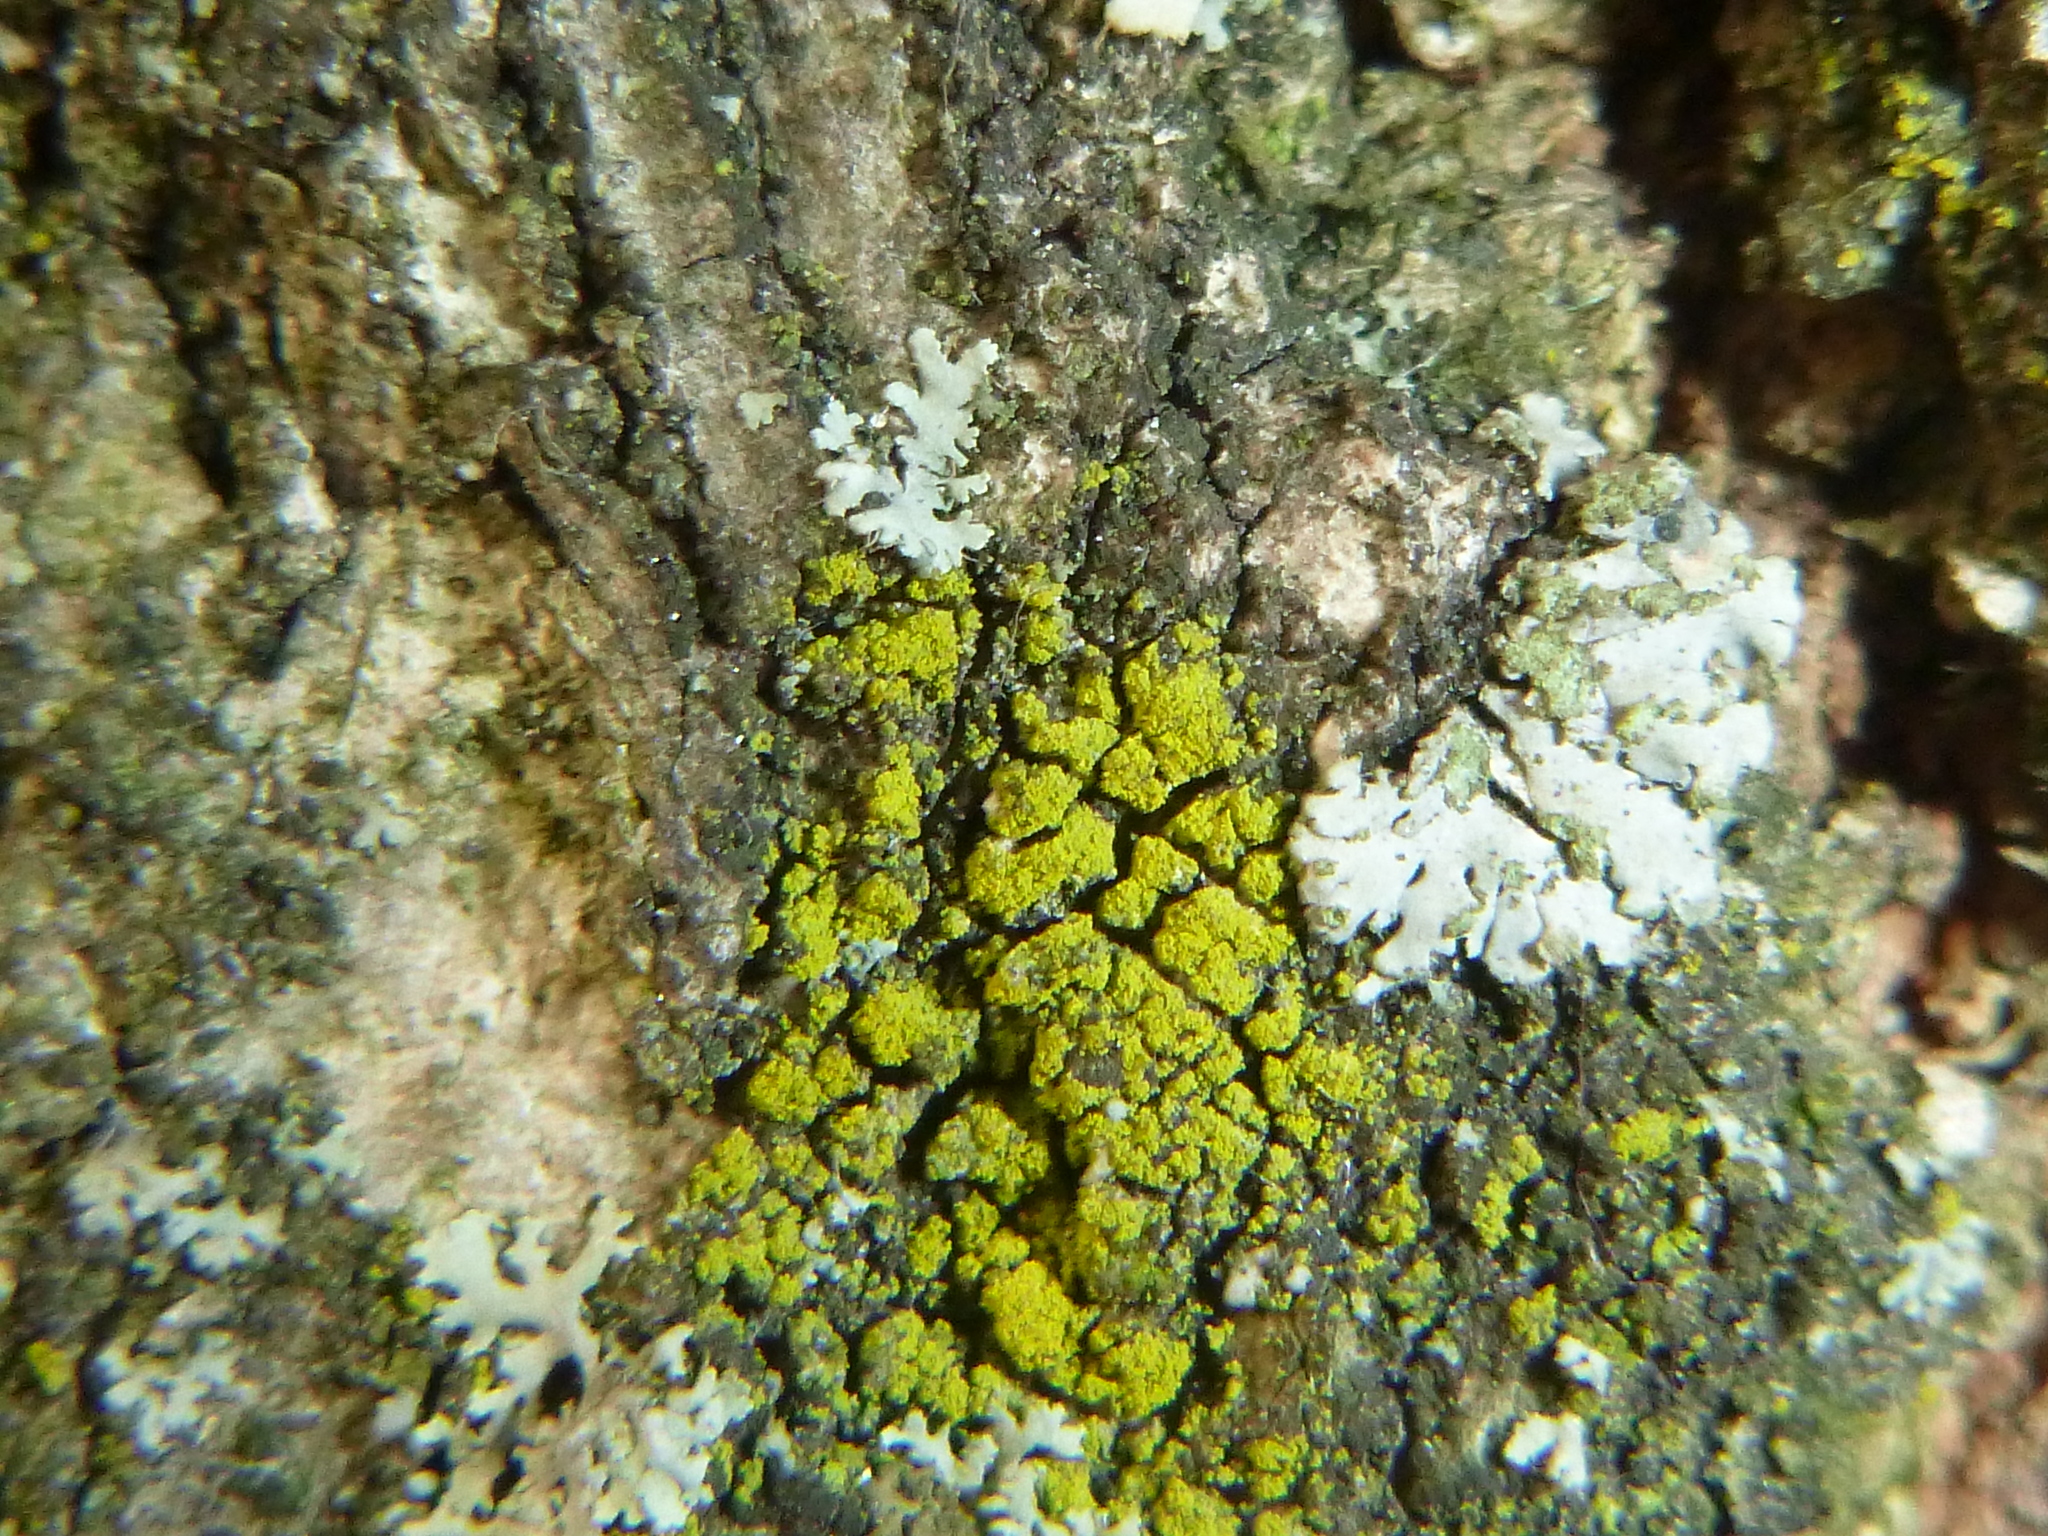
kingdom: Fungi
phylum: Ascomycota
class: Candelariomycetes
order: Candelariales
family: Candelariaceae
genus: Candelariella
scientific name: Candelariella vitellina
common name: Common goldspeck
